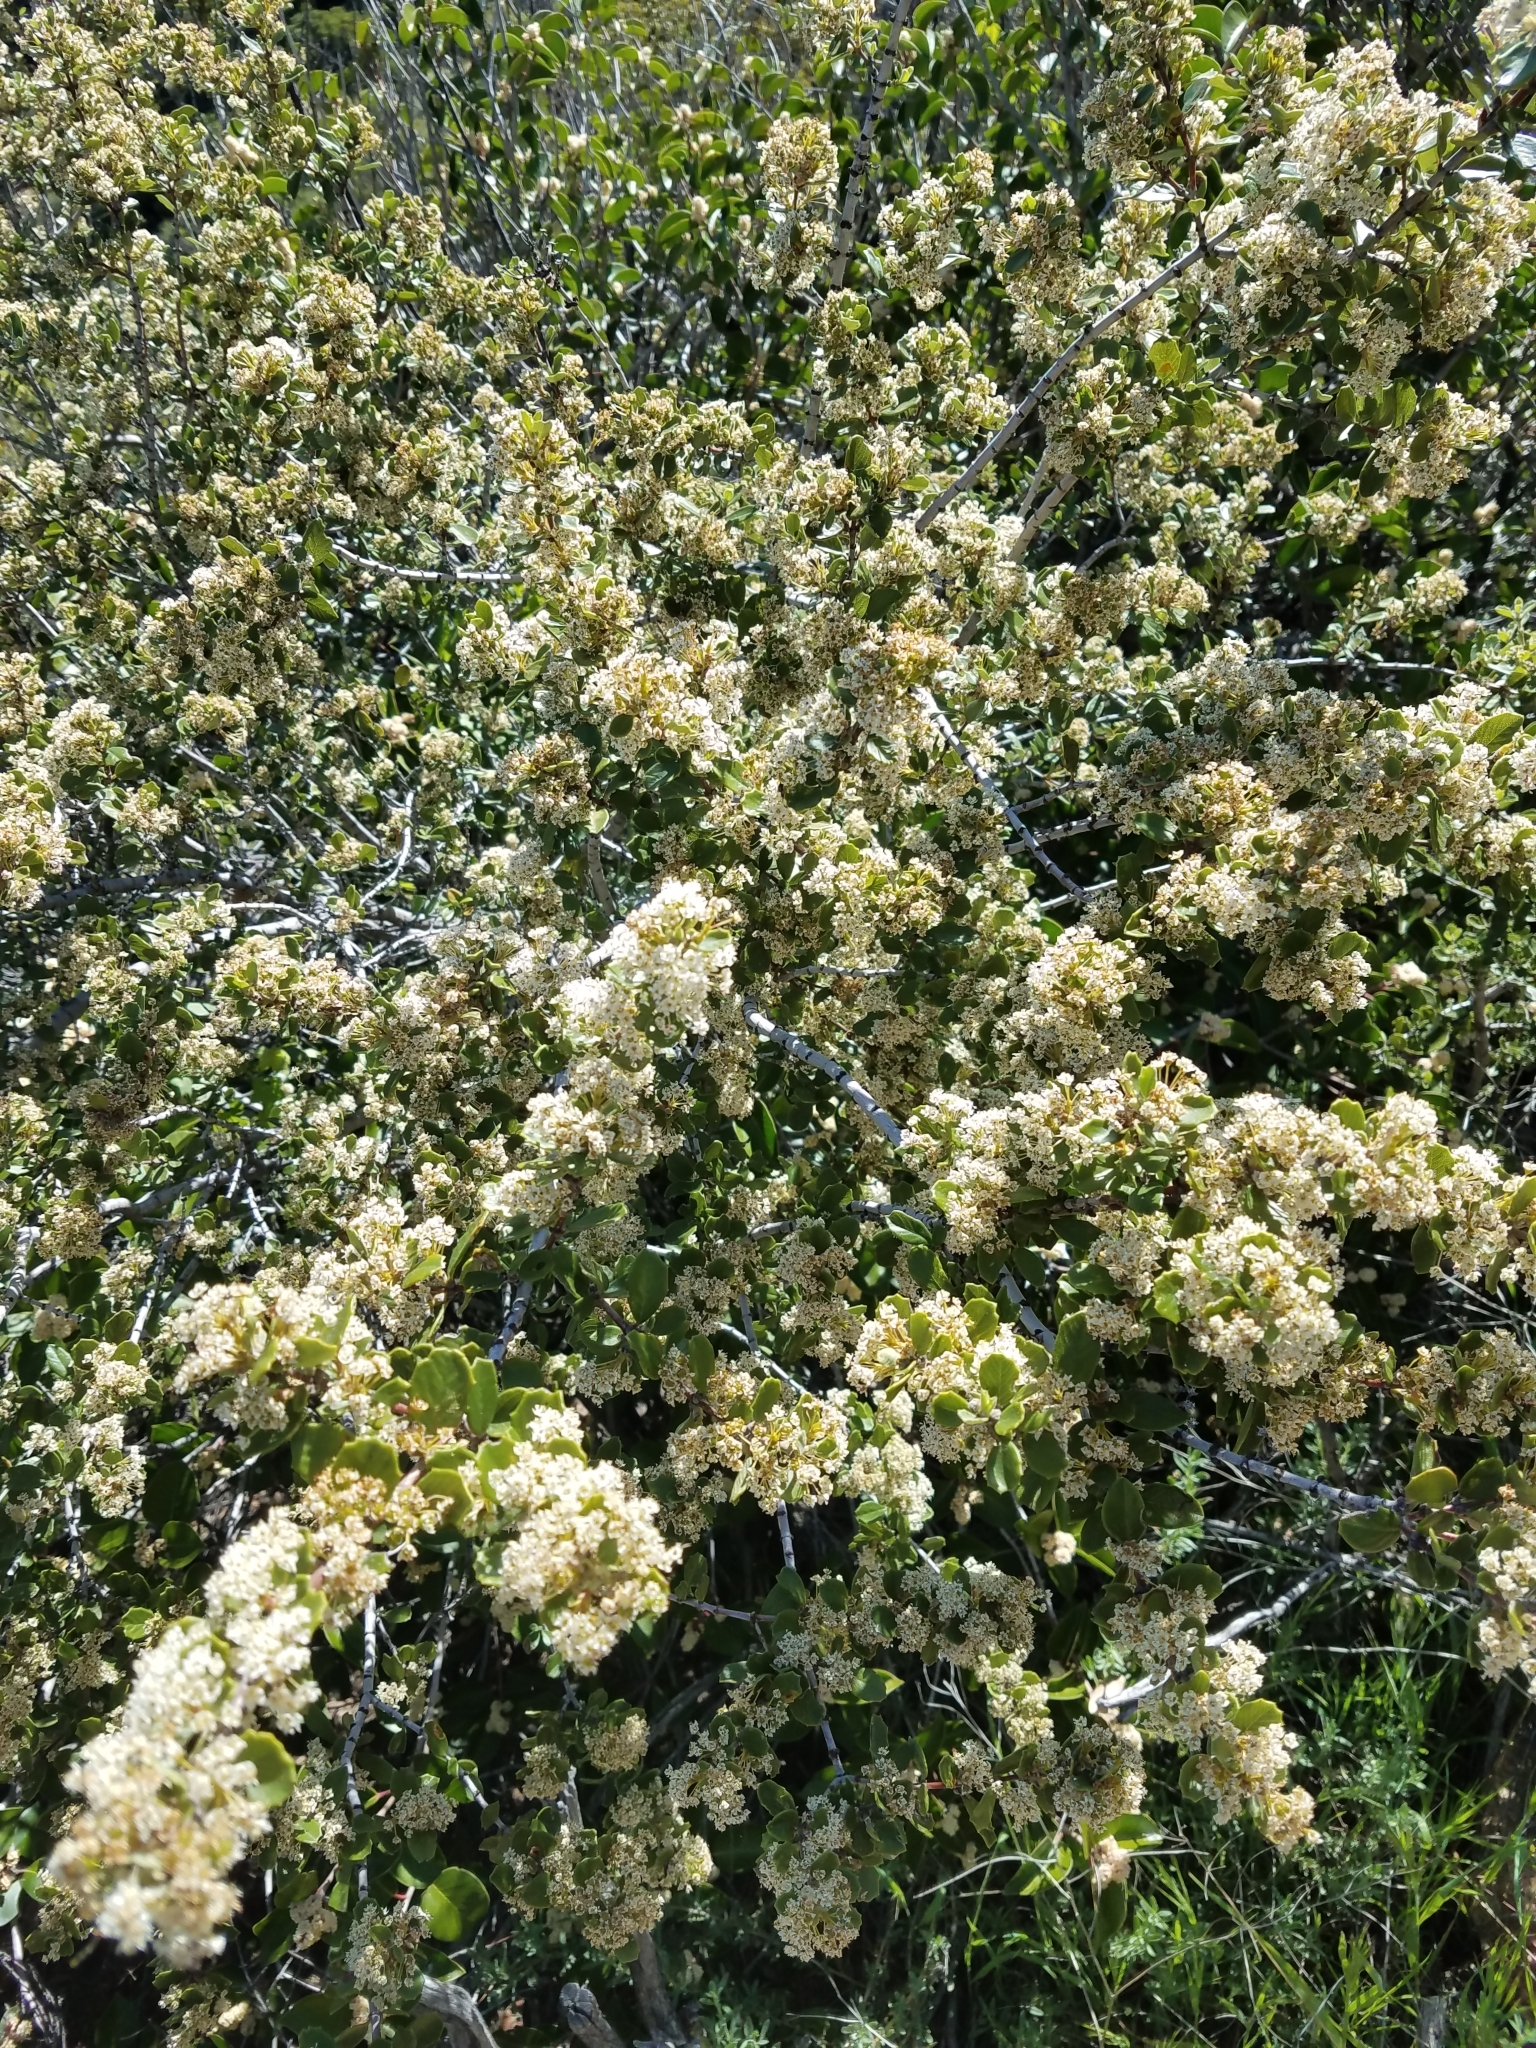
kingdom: Plantae
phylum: Tracheophyta
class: Magnoliopsida
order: Rosales
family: Rhamnaceae
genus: Ceanothus
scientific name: Ceanothus perplexans
